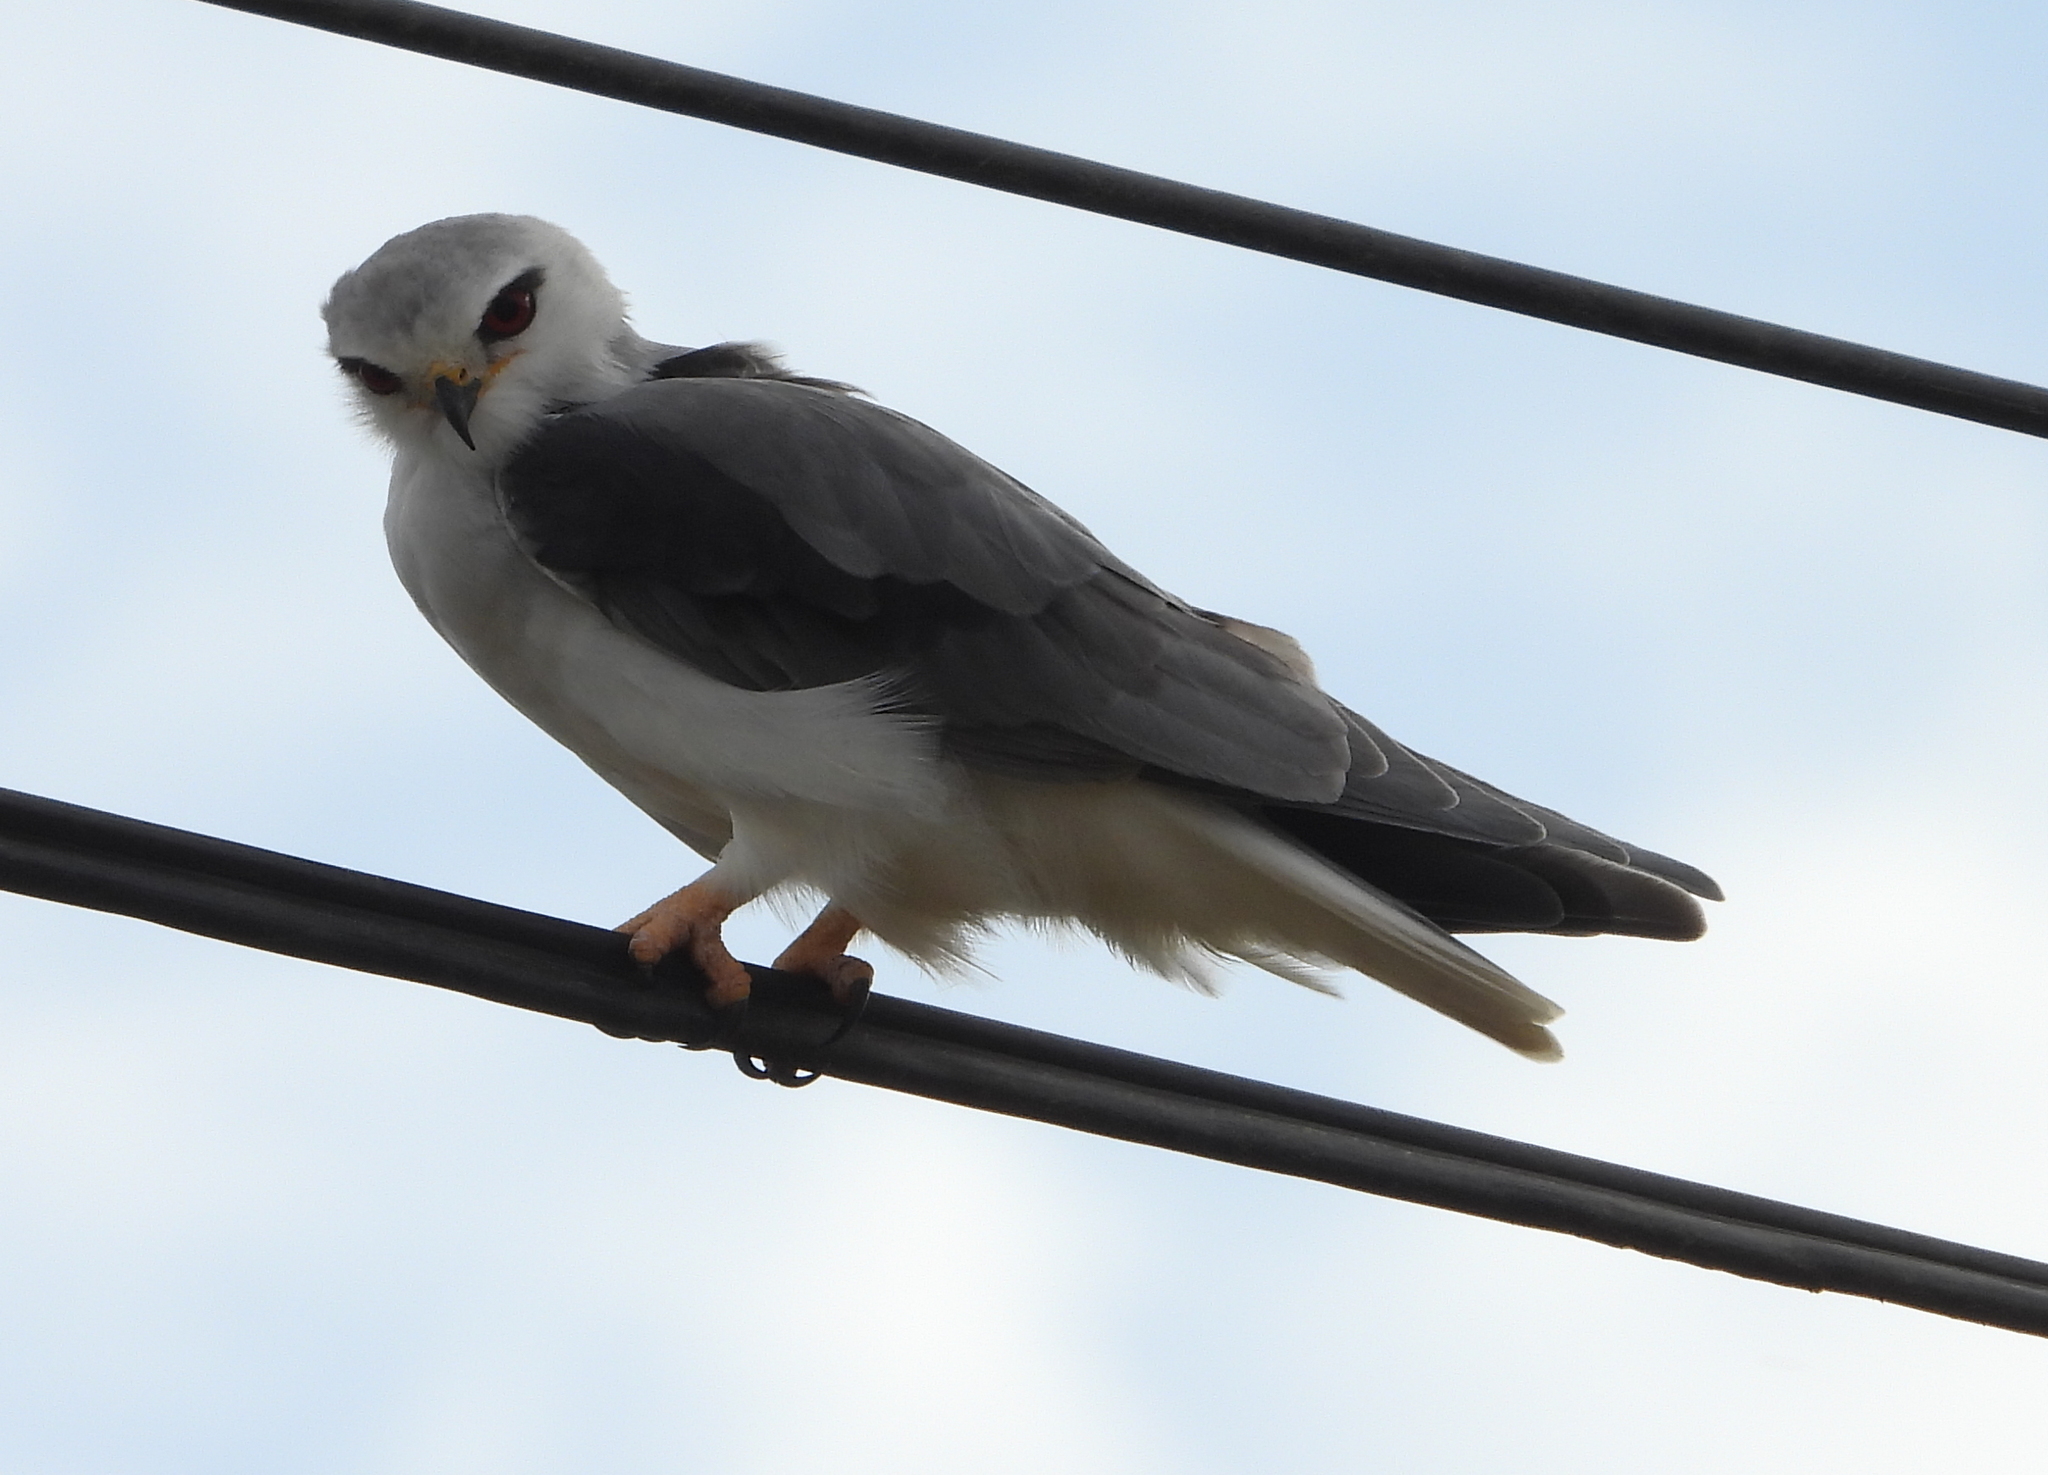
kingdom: Animalia
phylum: Chordata
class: Aves
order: Accipitriformes
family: Accipitridae
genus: Elanus
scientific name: Elanus caeruleus
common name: Black-winged kite
